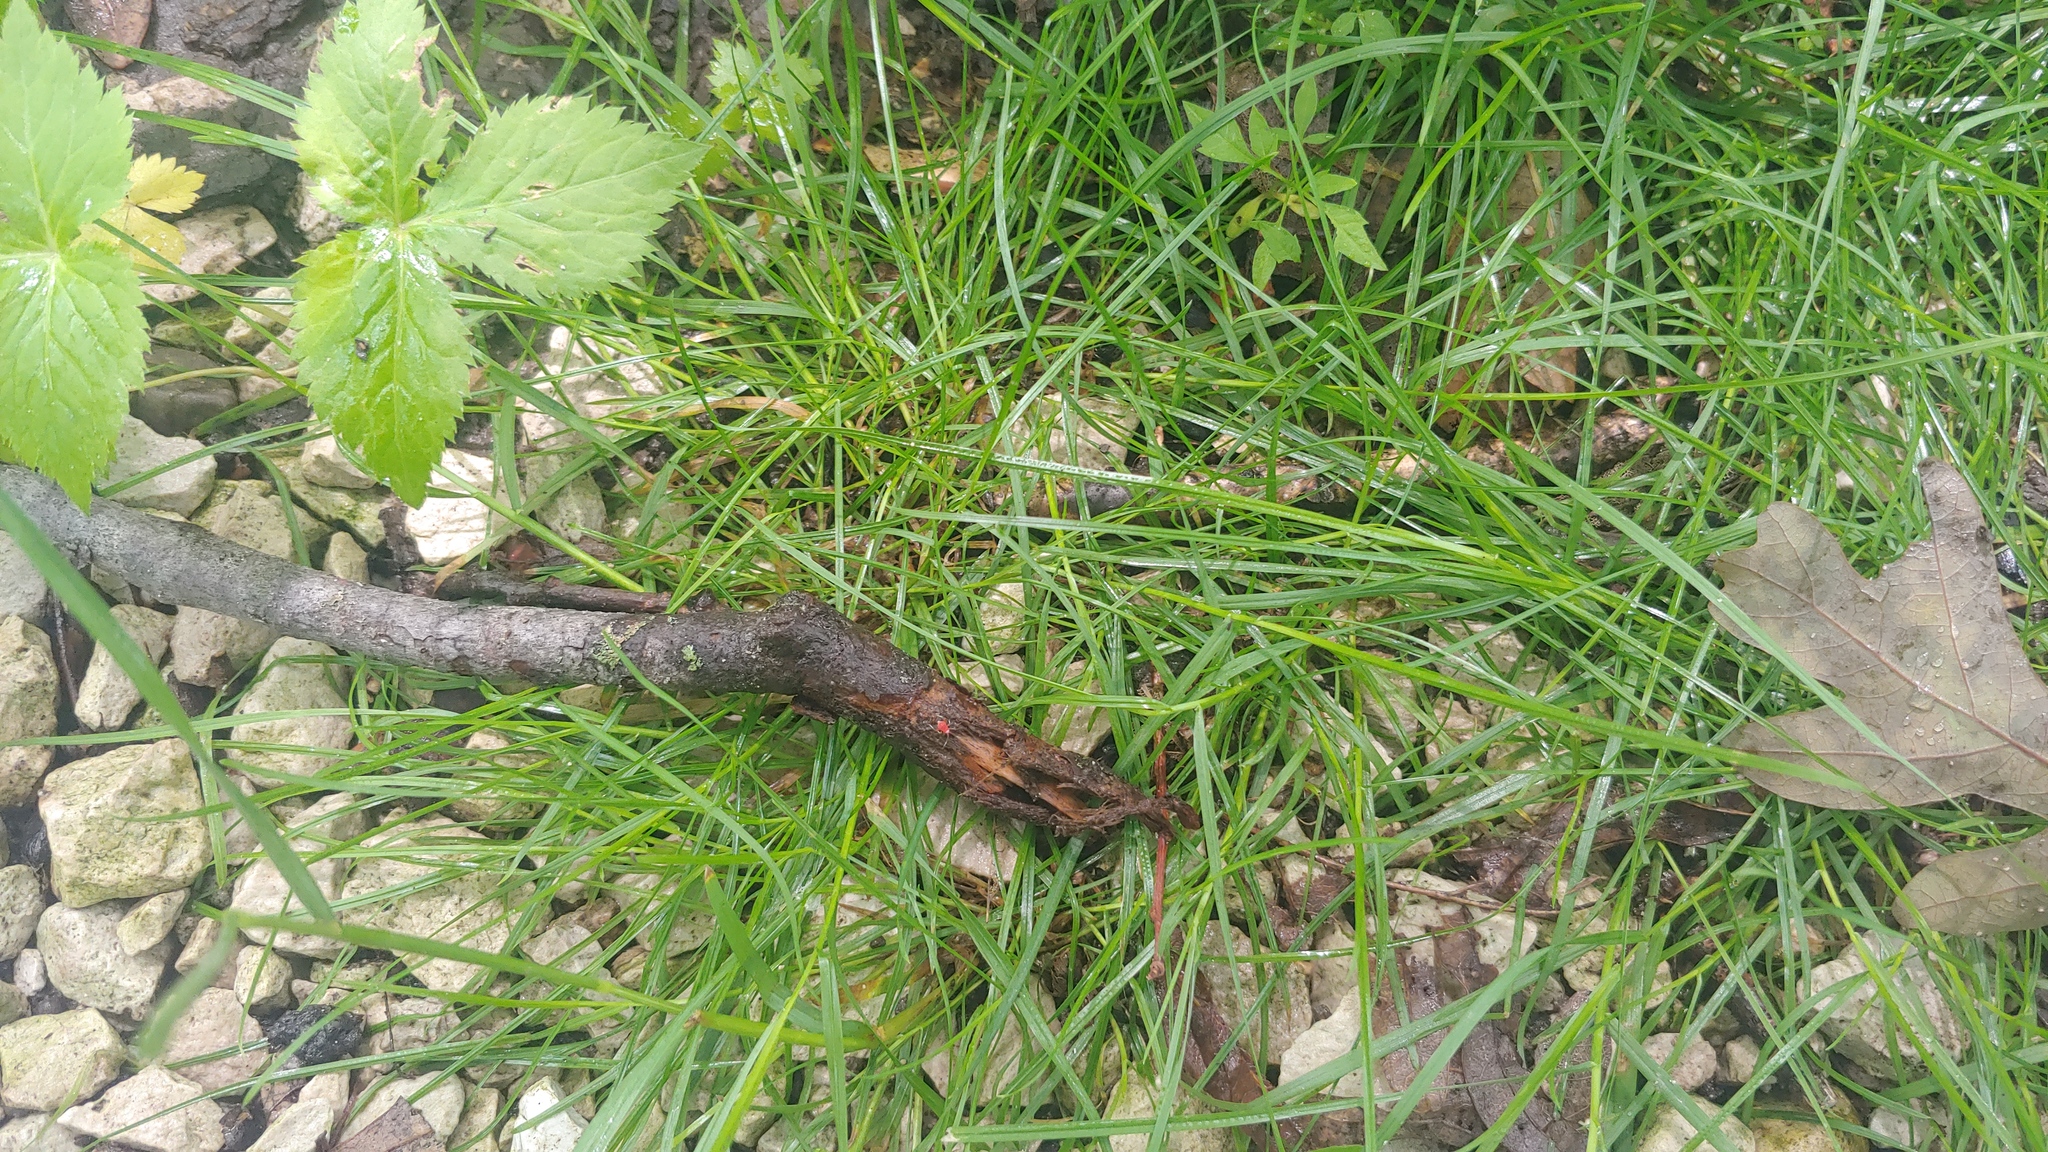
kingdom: Plantae
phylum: Tracheophyta
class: Liliopsida
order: Poales
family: Poaceae
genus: Poa
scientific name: Poa trivialis
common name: Rough bluegrass
